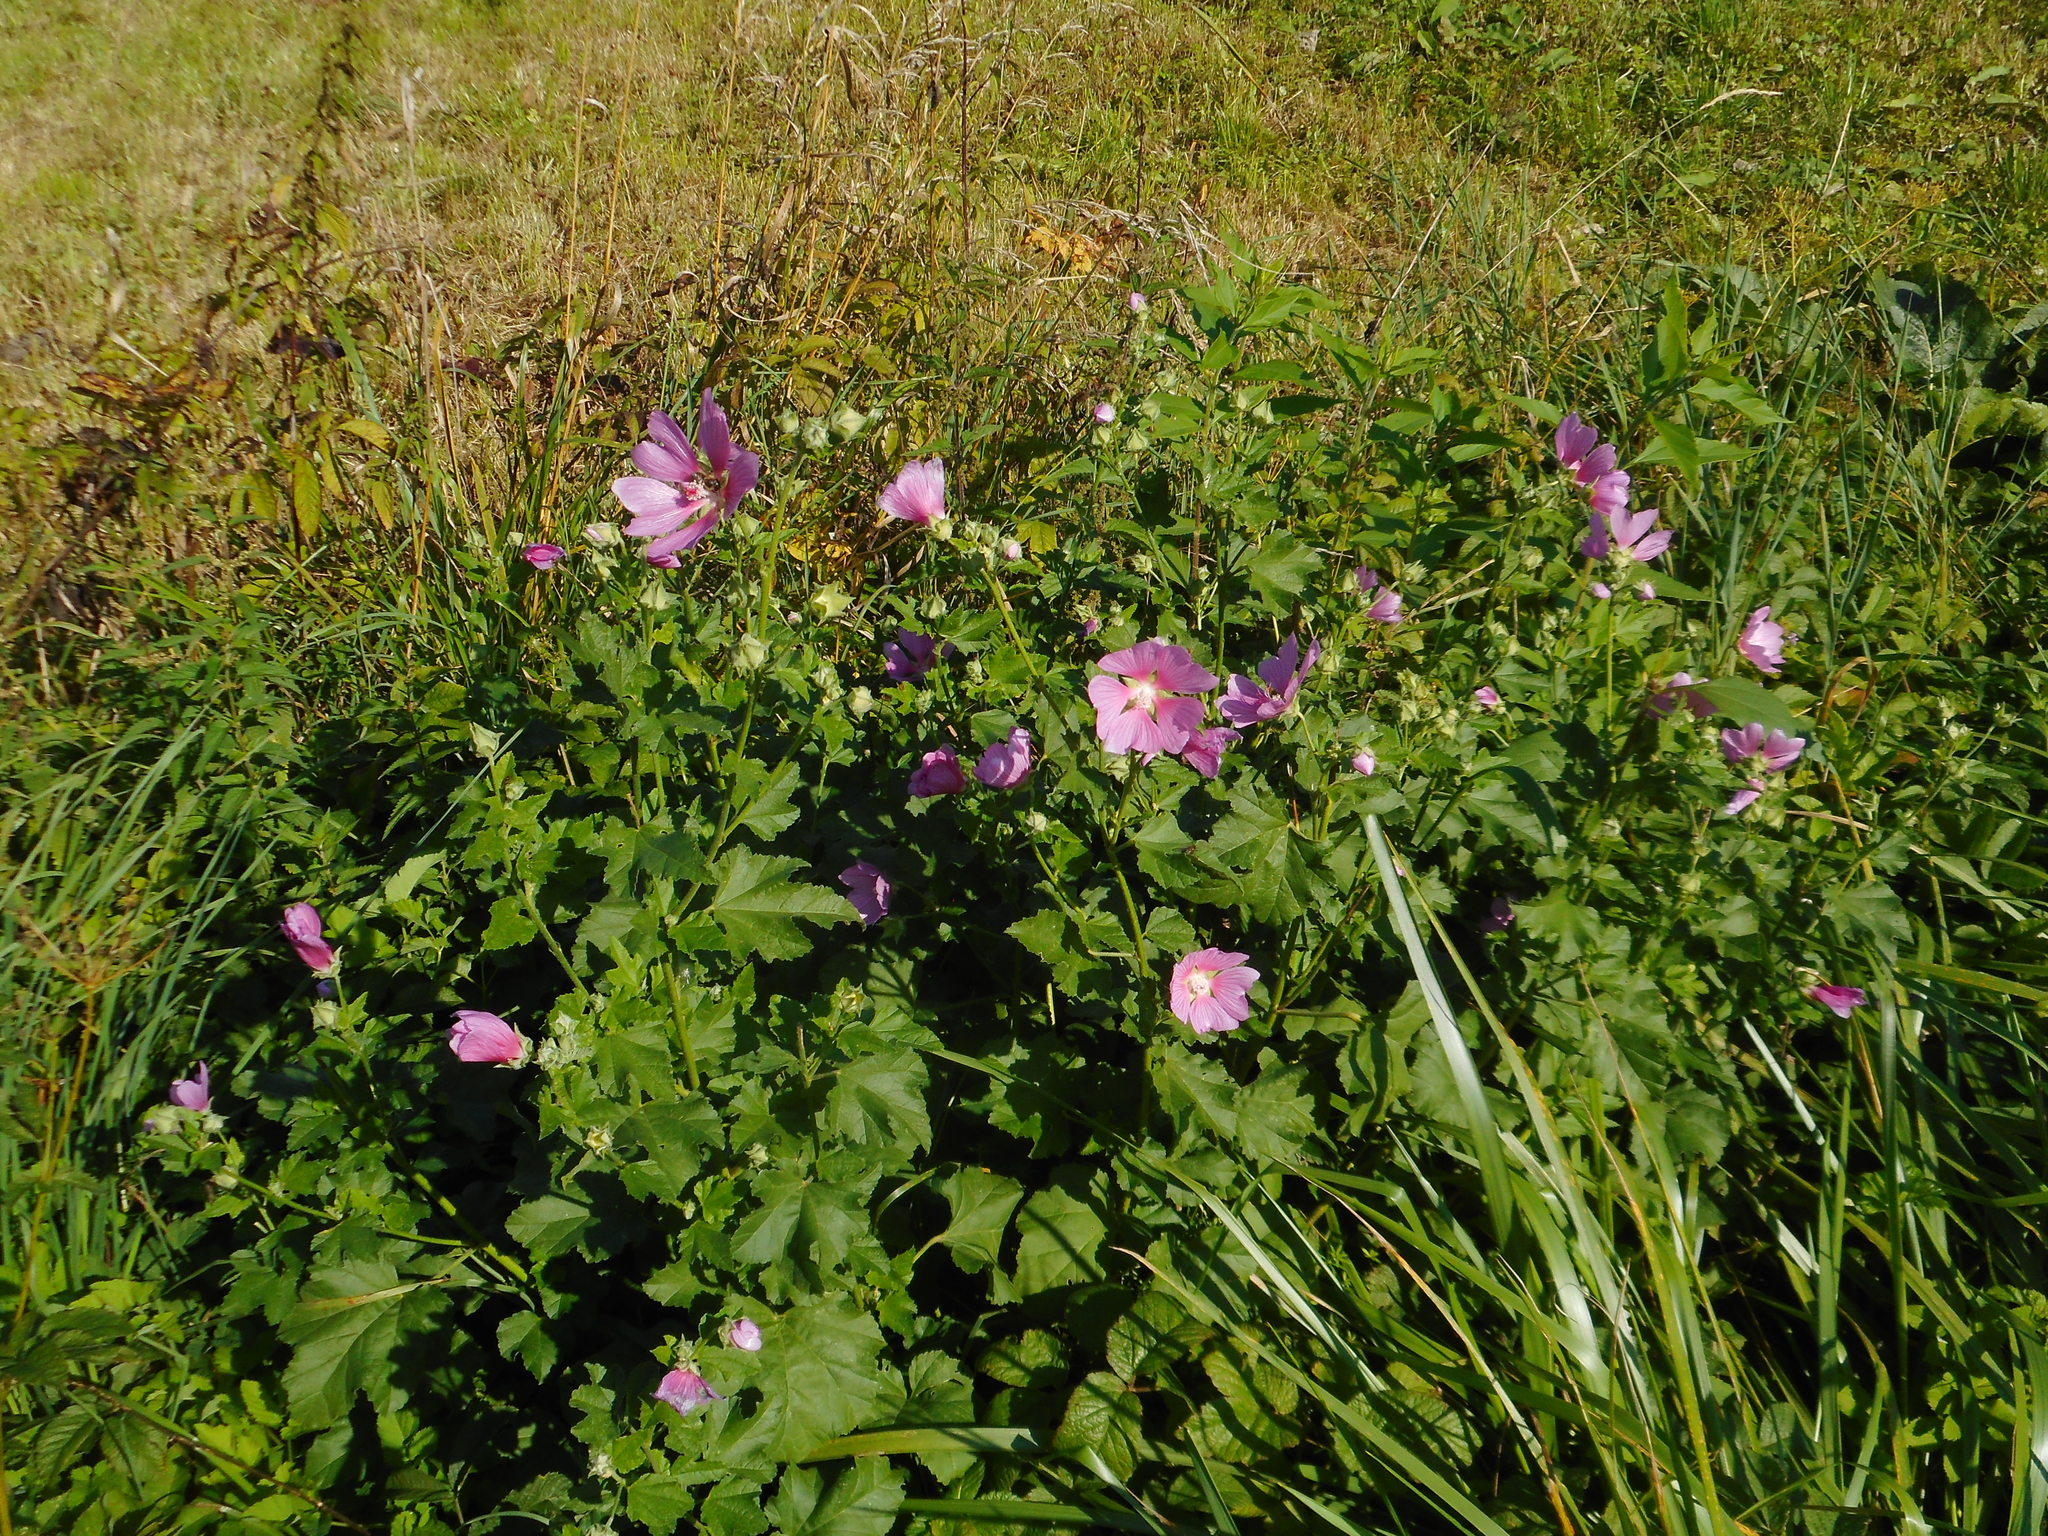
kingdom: Plantae
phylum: Tracheophyta
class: Magnoliopsida
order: Malvales
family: Malvaceae
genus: Malva
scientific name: Malva thuringiaca
